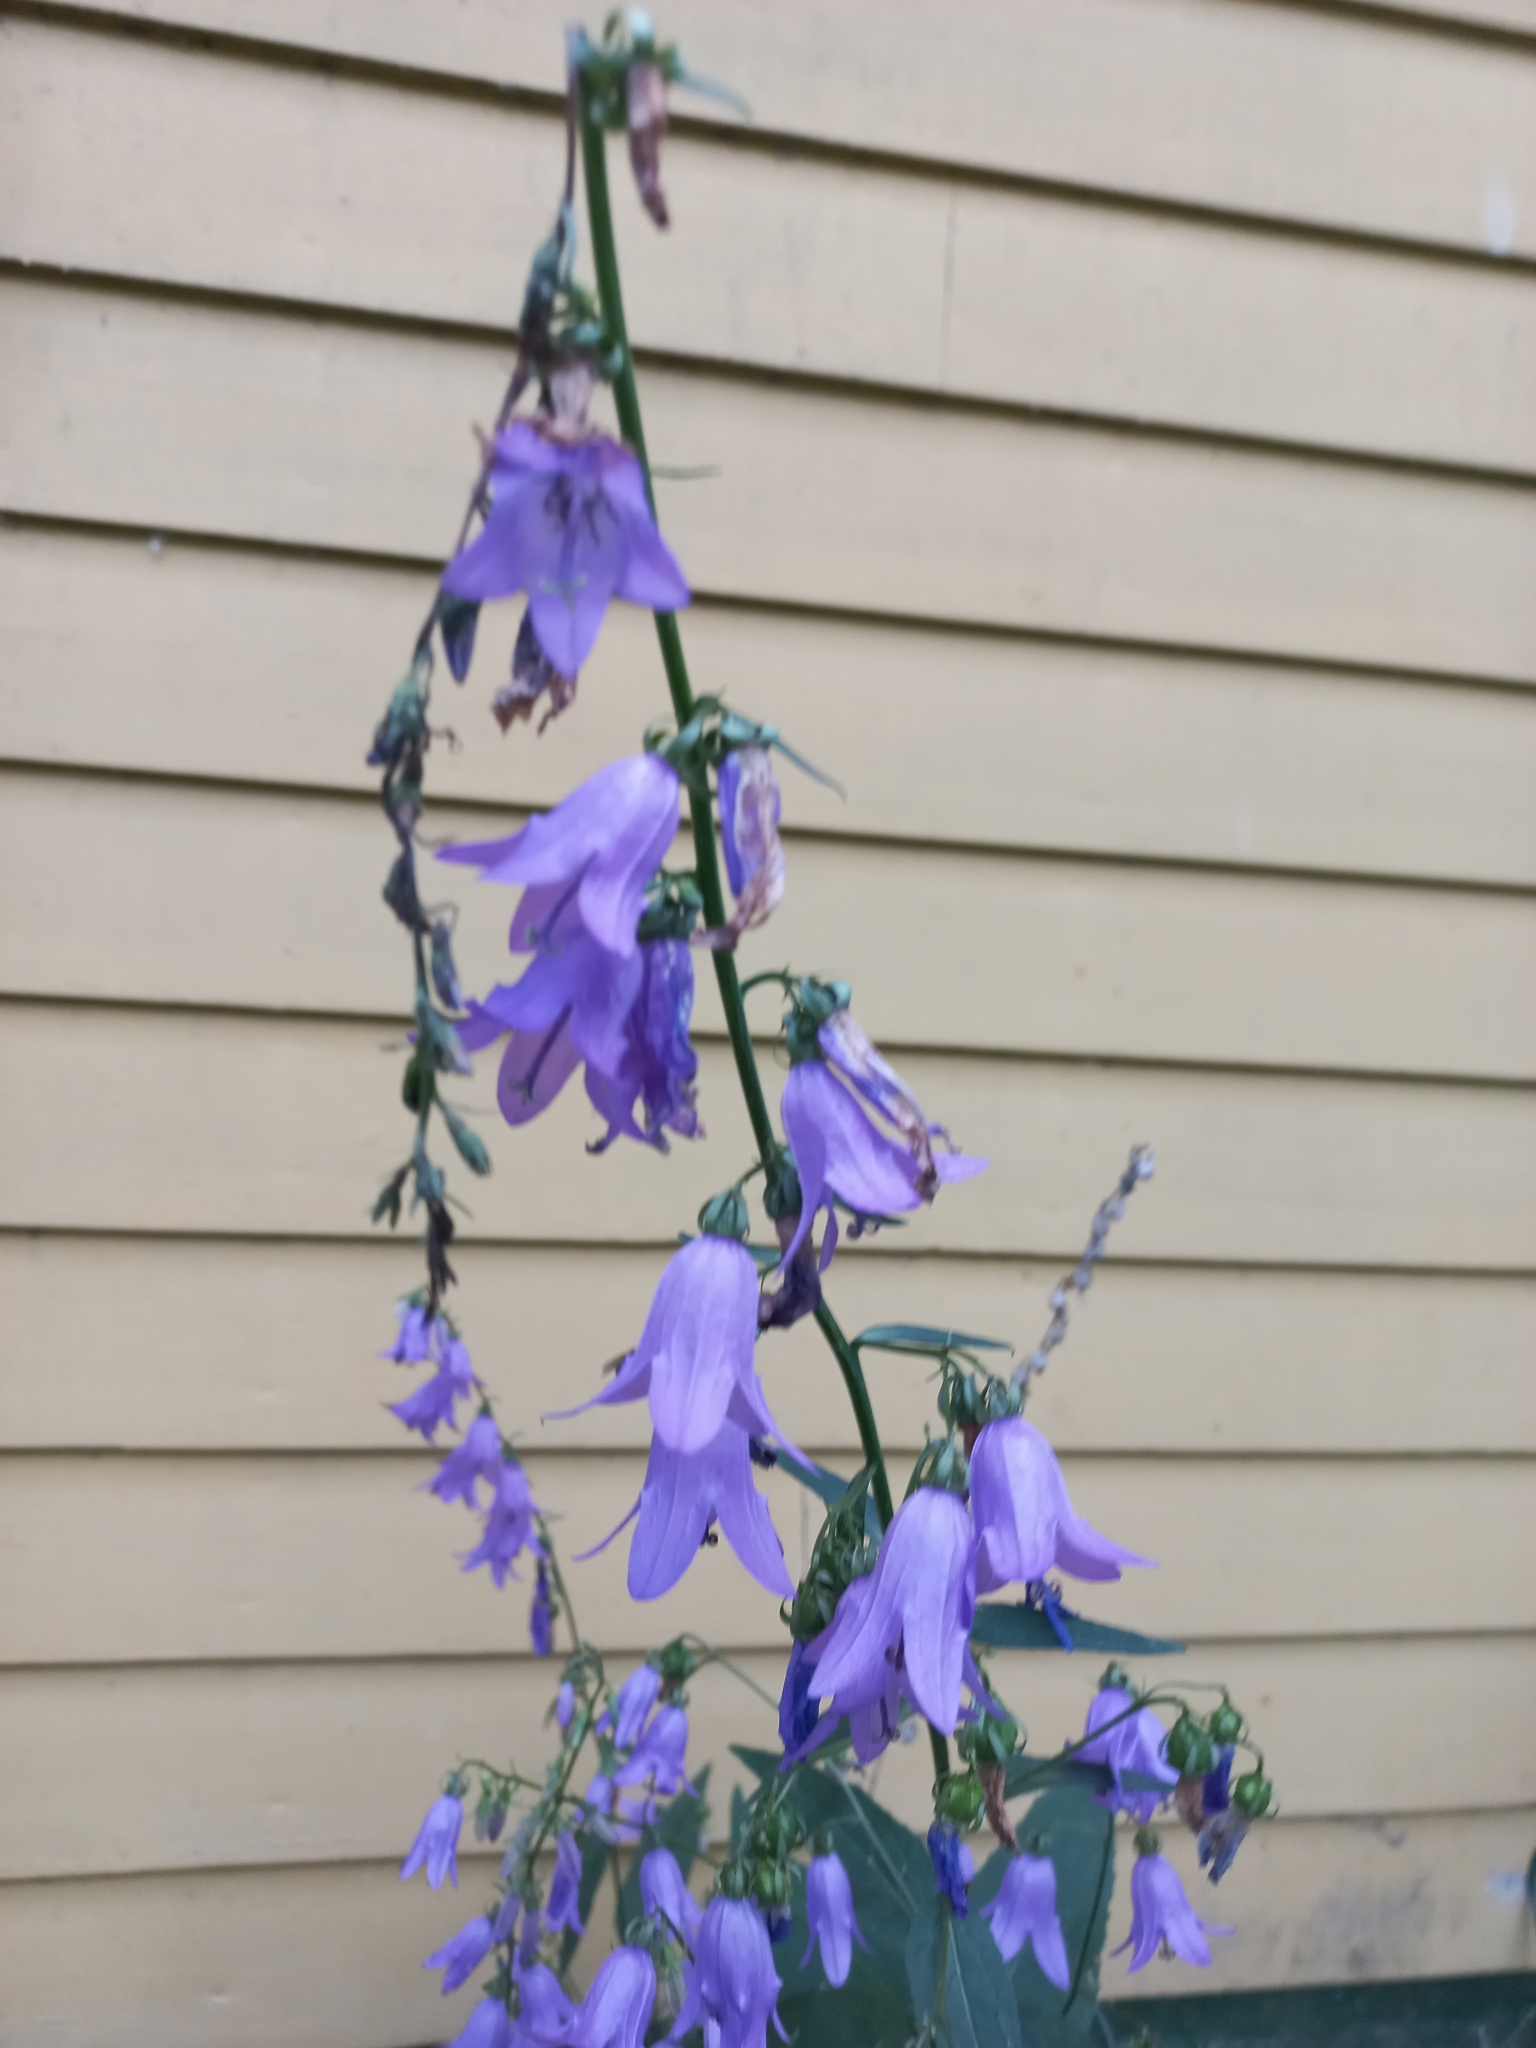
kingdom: Plantae
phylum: Tracheophyta
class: Magnoliopsida
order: Asterales
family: Campanulaceae
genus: Campanula
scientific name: Campanula rapunculoides
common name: Creeping bellflower
